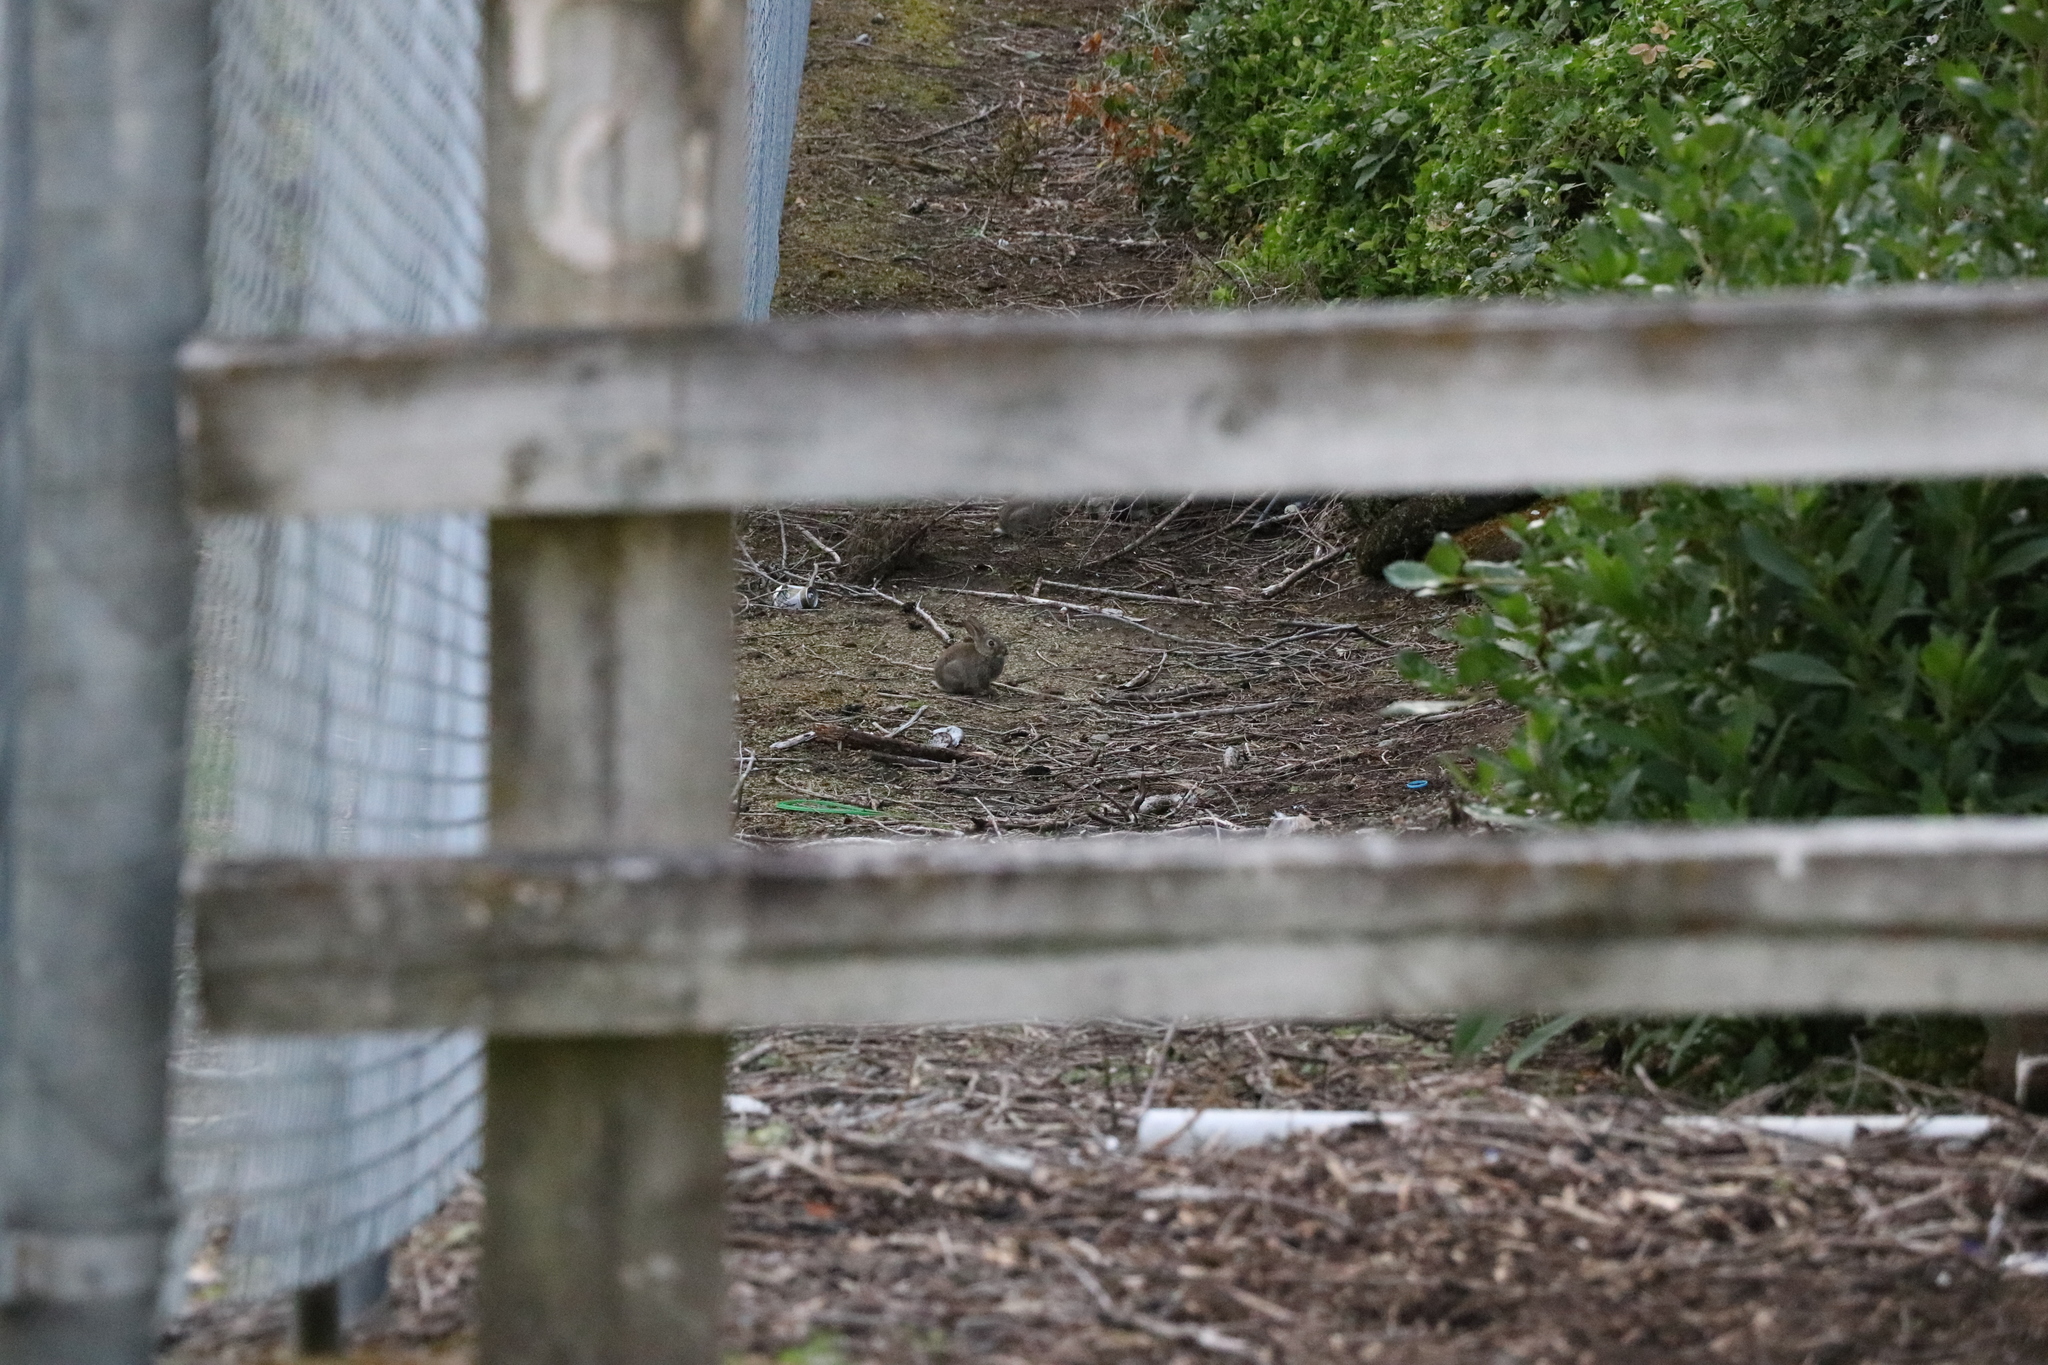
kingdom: Animalia
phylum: Chordata
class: Mammalia
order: Lagomorpha
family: Leporidae
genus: Oryctolagus
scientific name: Oryctolagus cuniculus
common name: European rabbit
